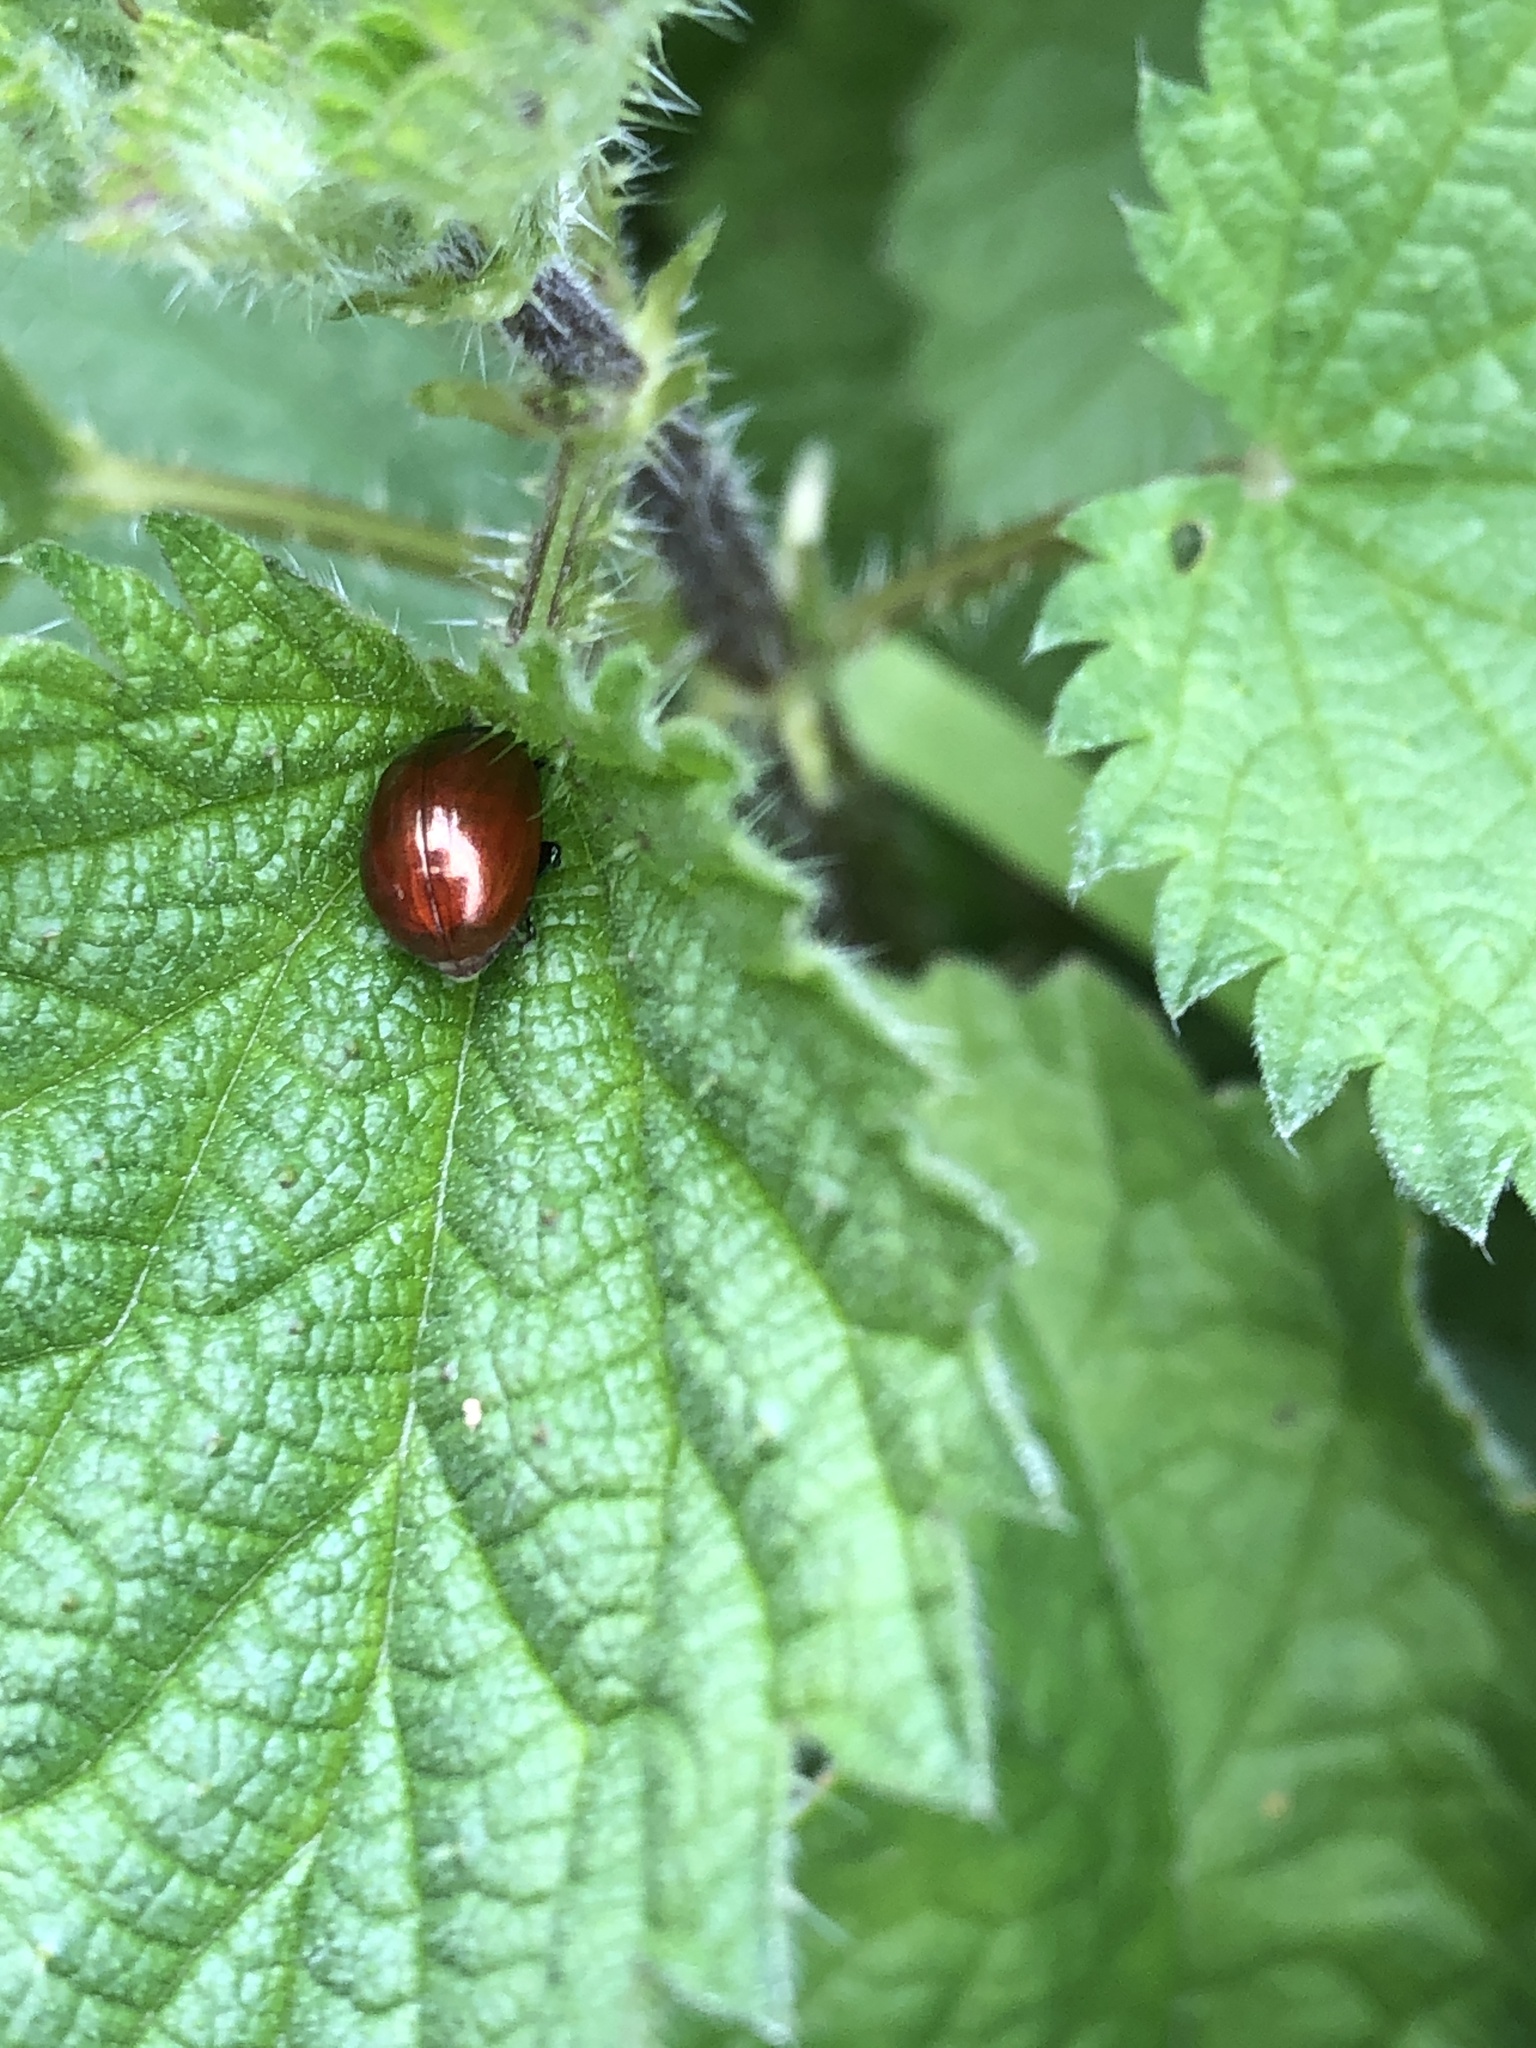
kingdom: Animalia
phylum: Arthropoda
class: Insecta
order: Coleoptera
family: Chrysomelidae
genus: Chrysomela
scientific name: Chrysomela polita
